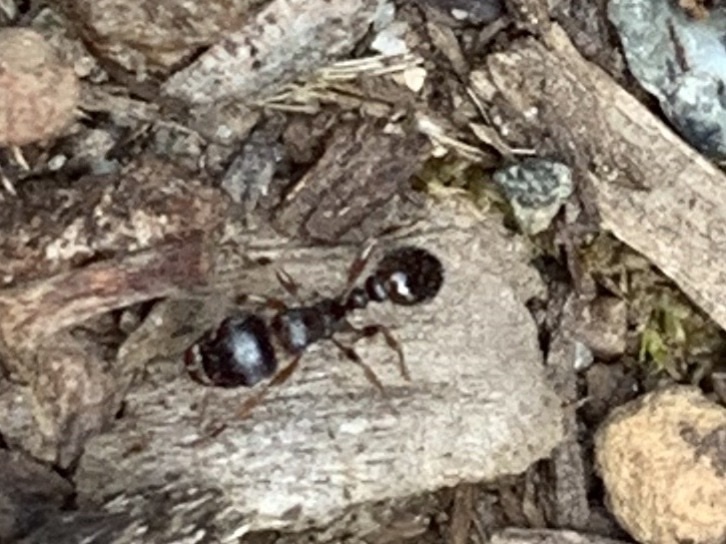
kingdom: Animalia
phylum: Arthropoda
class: Insecta
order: Hymenoptera
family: Formicidae
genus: Tetramorium
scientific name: Tetramorium immigrans
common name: Pavement ant
